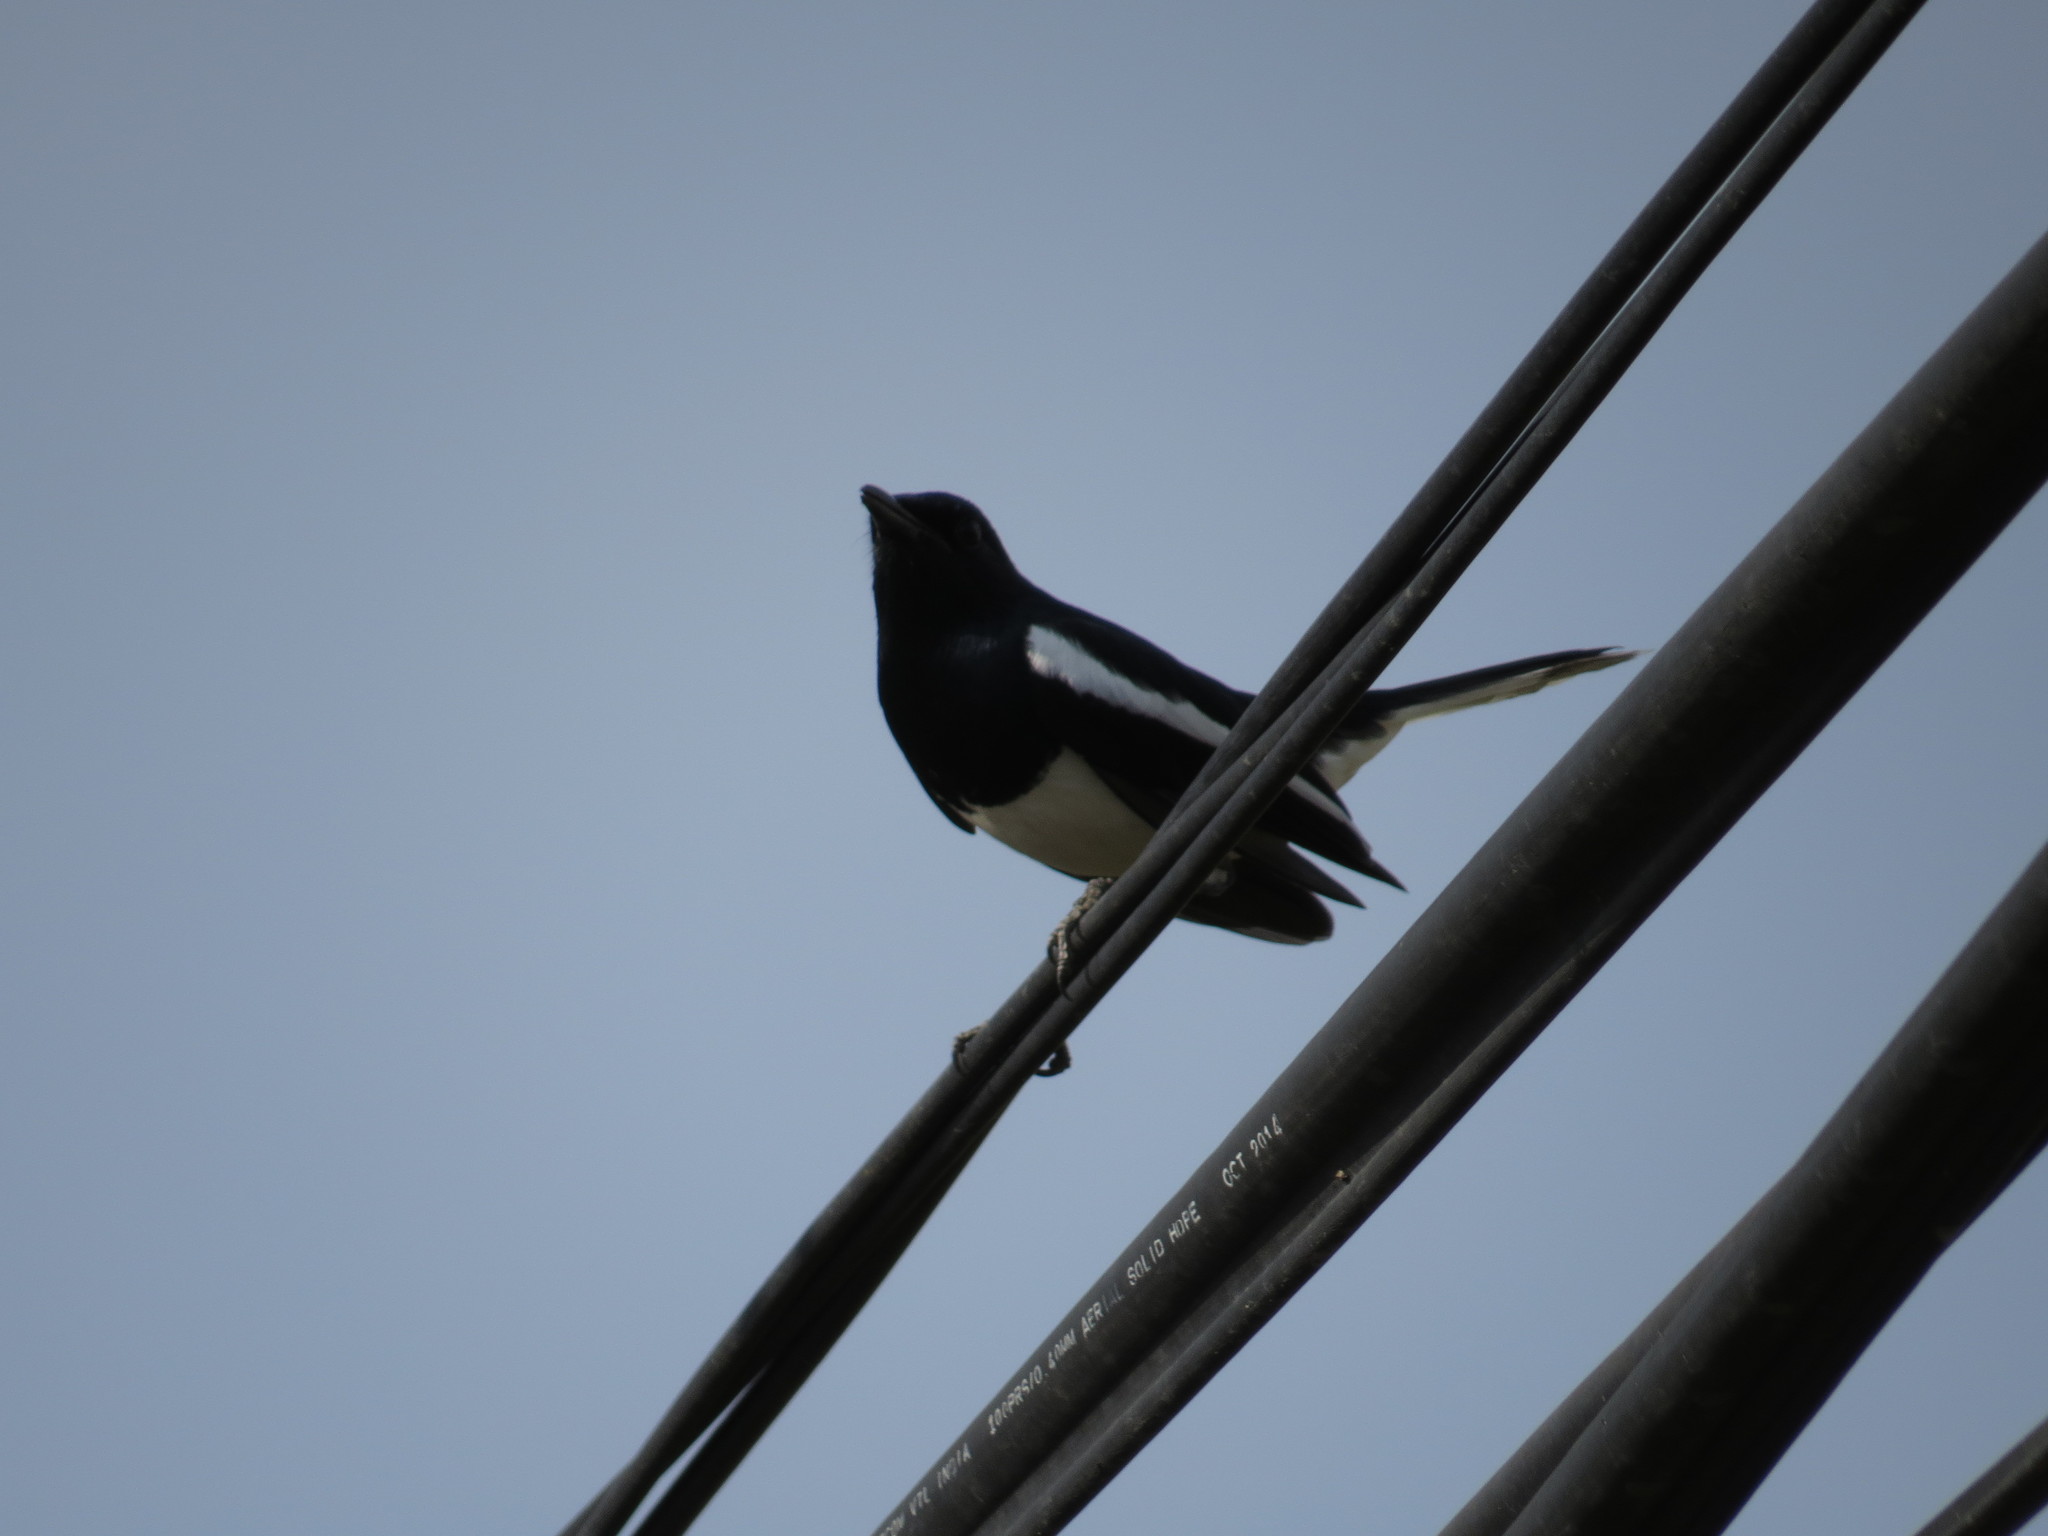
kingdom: Animalia
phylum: Chordata
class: Aves
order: Passeriformes
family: Muscicapidae
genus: Copsychus
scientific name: Copsychus saularis
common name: Oriental magpie-robin
